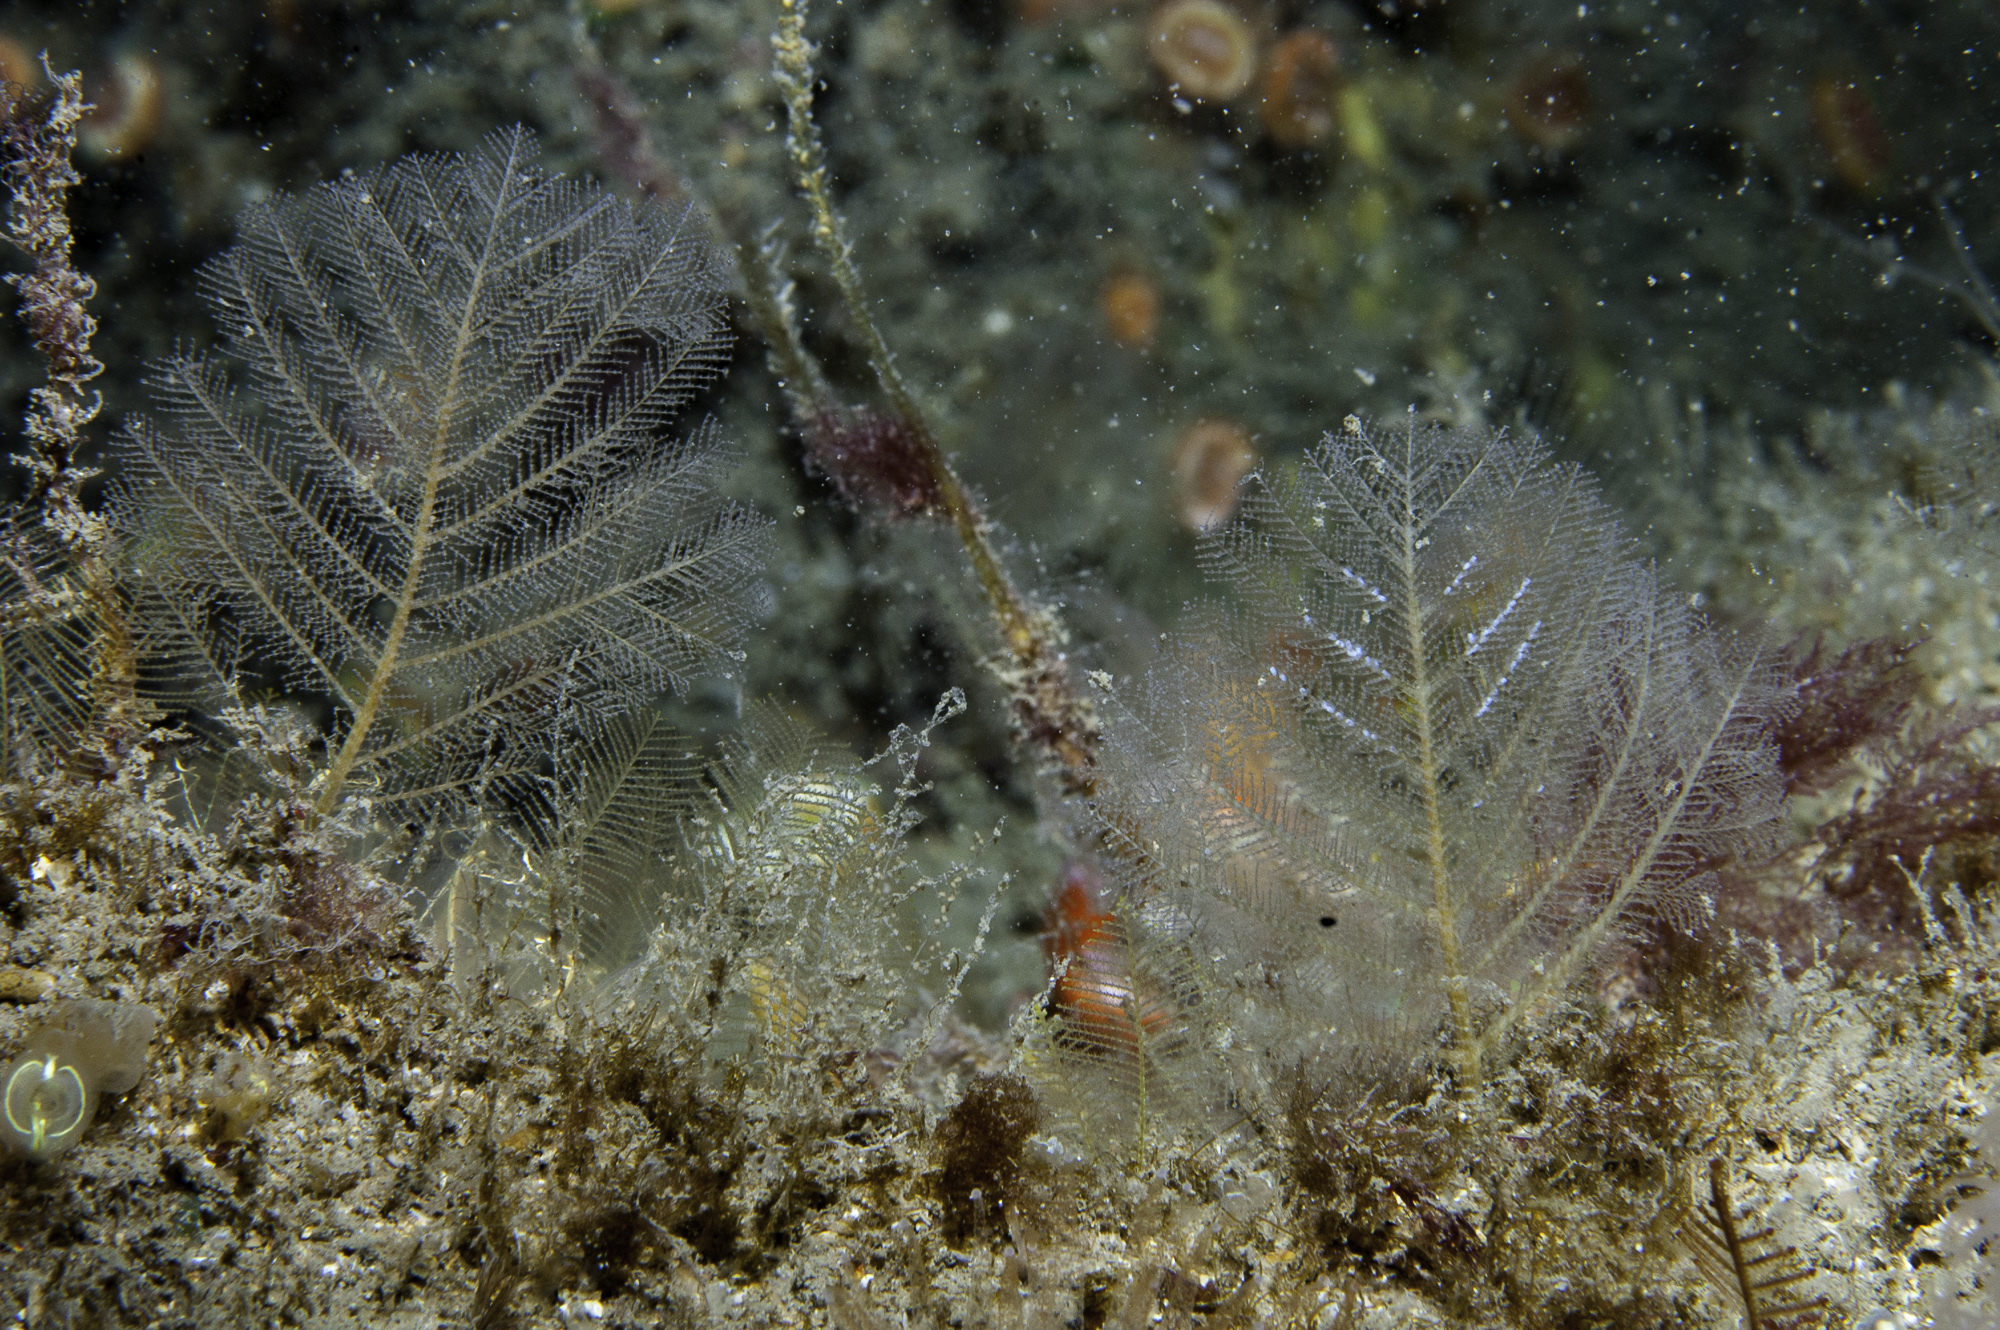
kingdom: Animalia
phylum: Cnidaria
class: Hydrozoa
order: Leptothecata
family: Halopterididae
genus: Polyplumaria
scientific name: Polyplumaria flabellata
